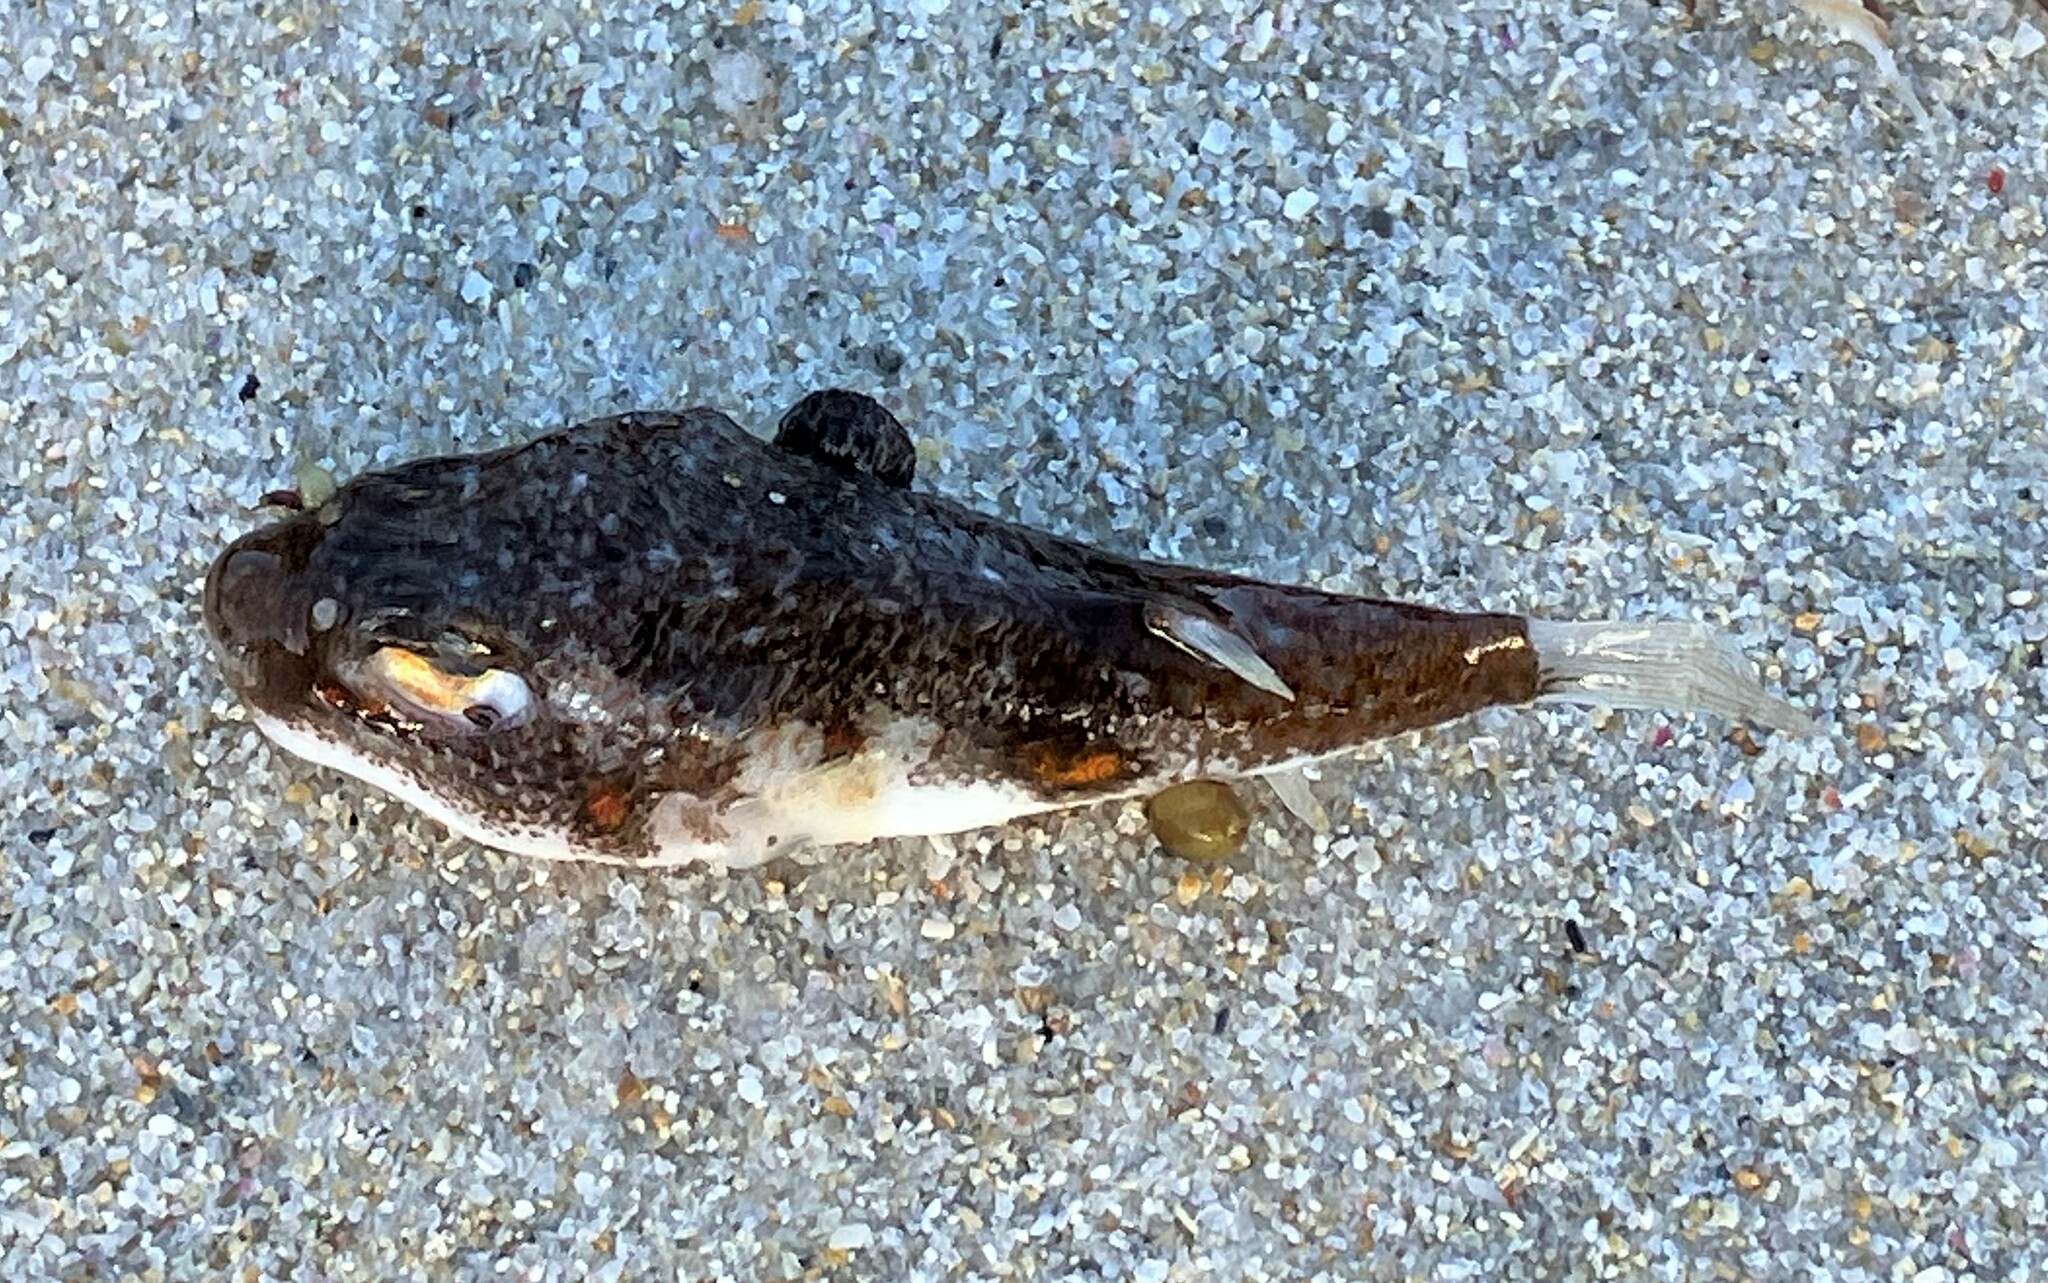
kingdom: Animalia
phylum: Chordata
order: Tetraodontiformes
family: Tetraodontidae
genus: Polyspina
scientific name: Polyspina piosae
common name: Orange-barred pufferfish
